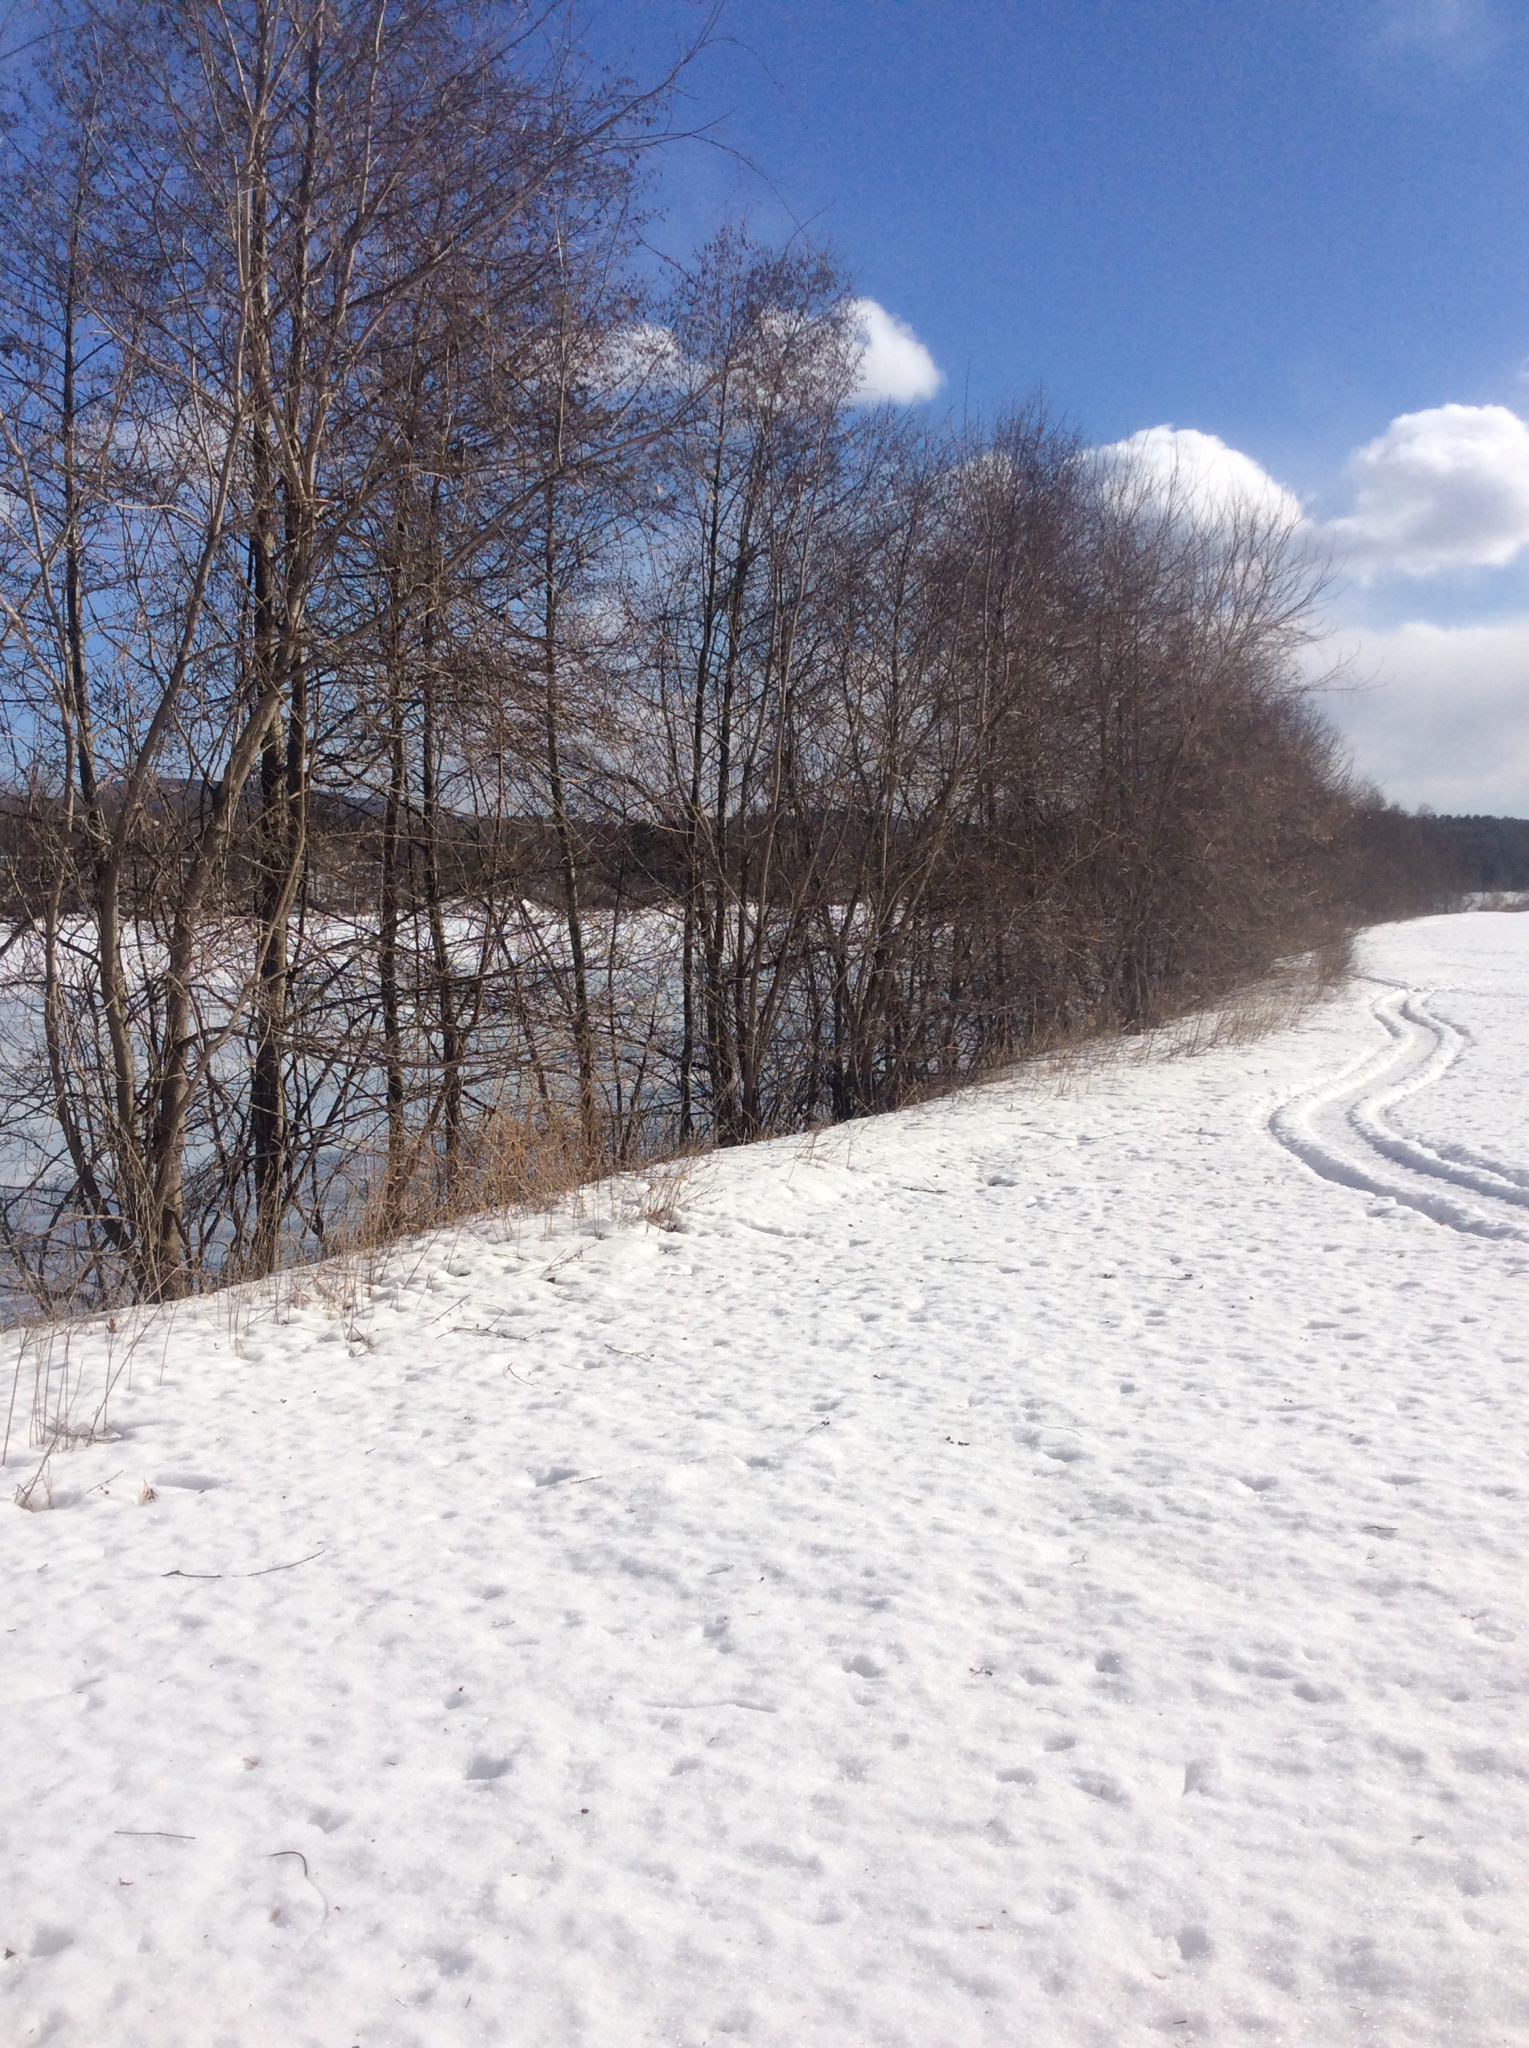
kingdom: Plantae
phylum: Tracheophyta
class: Magnoliopsida
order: Fagales
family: Betulaceae
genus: Alnus
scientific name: Alnus glutinosa
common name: Black alder
